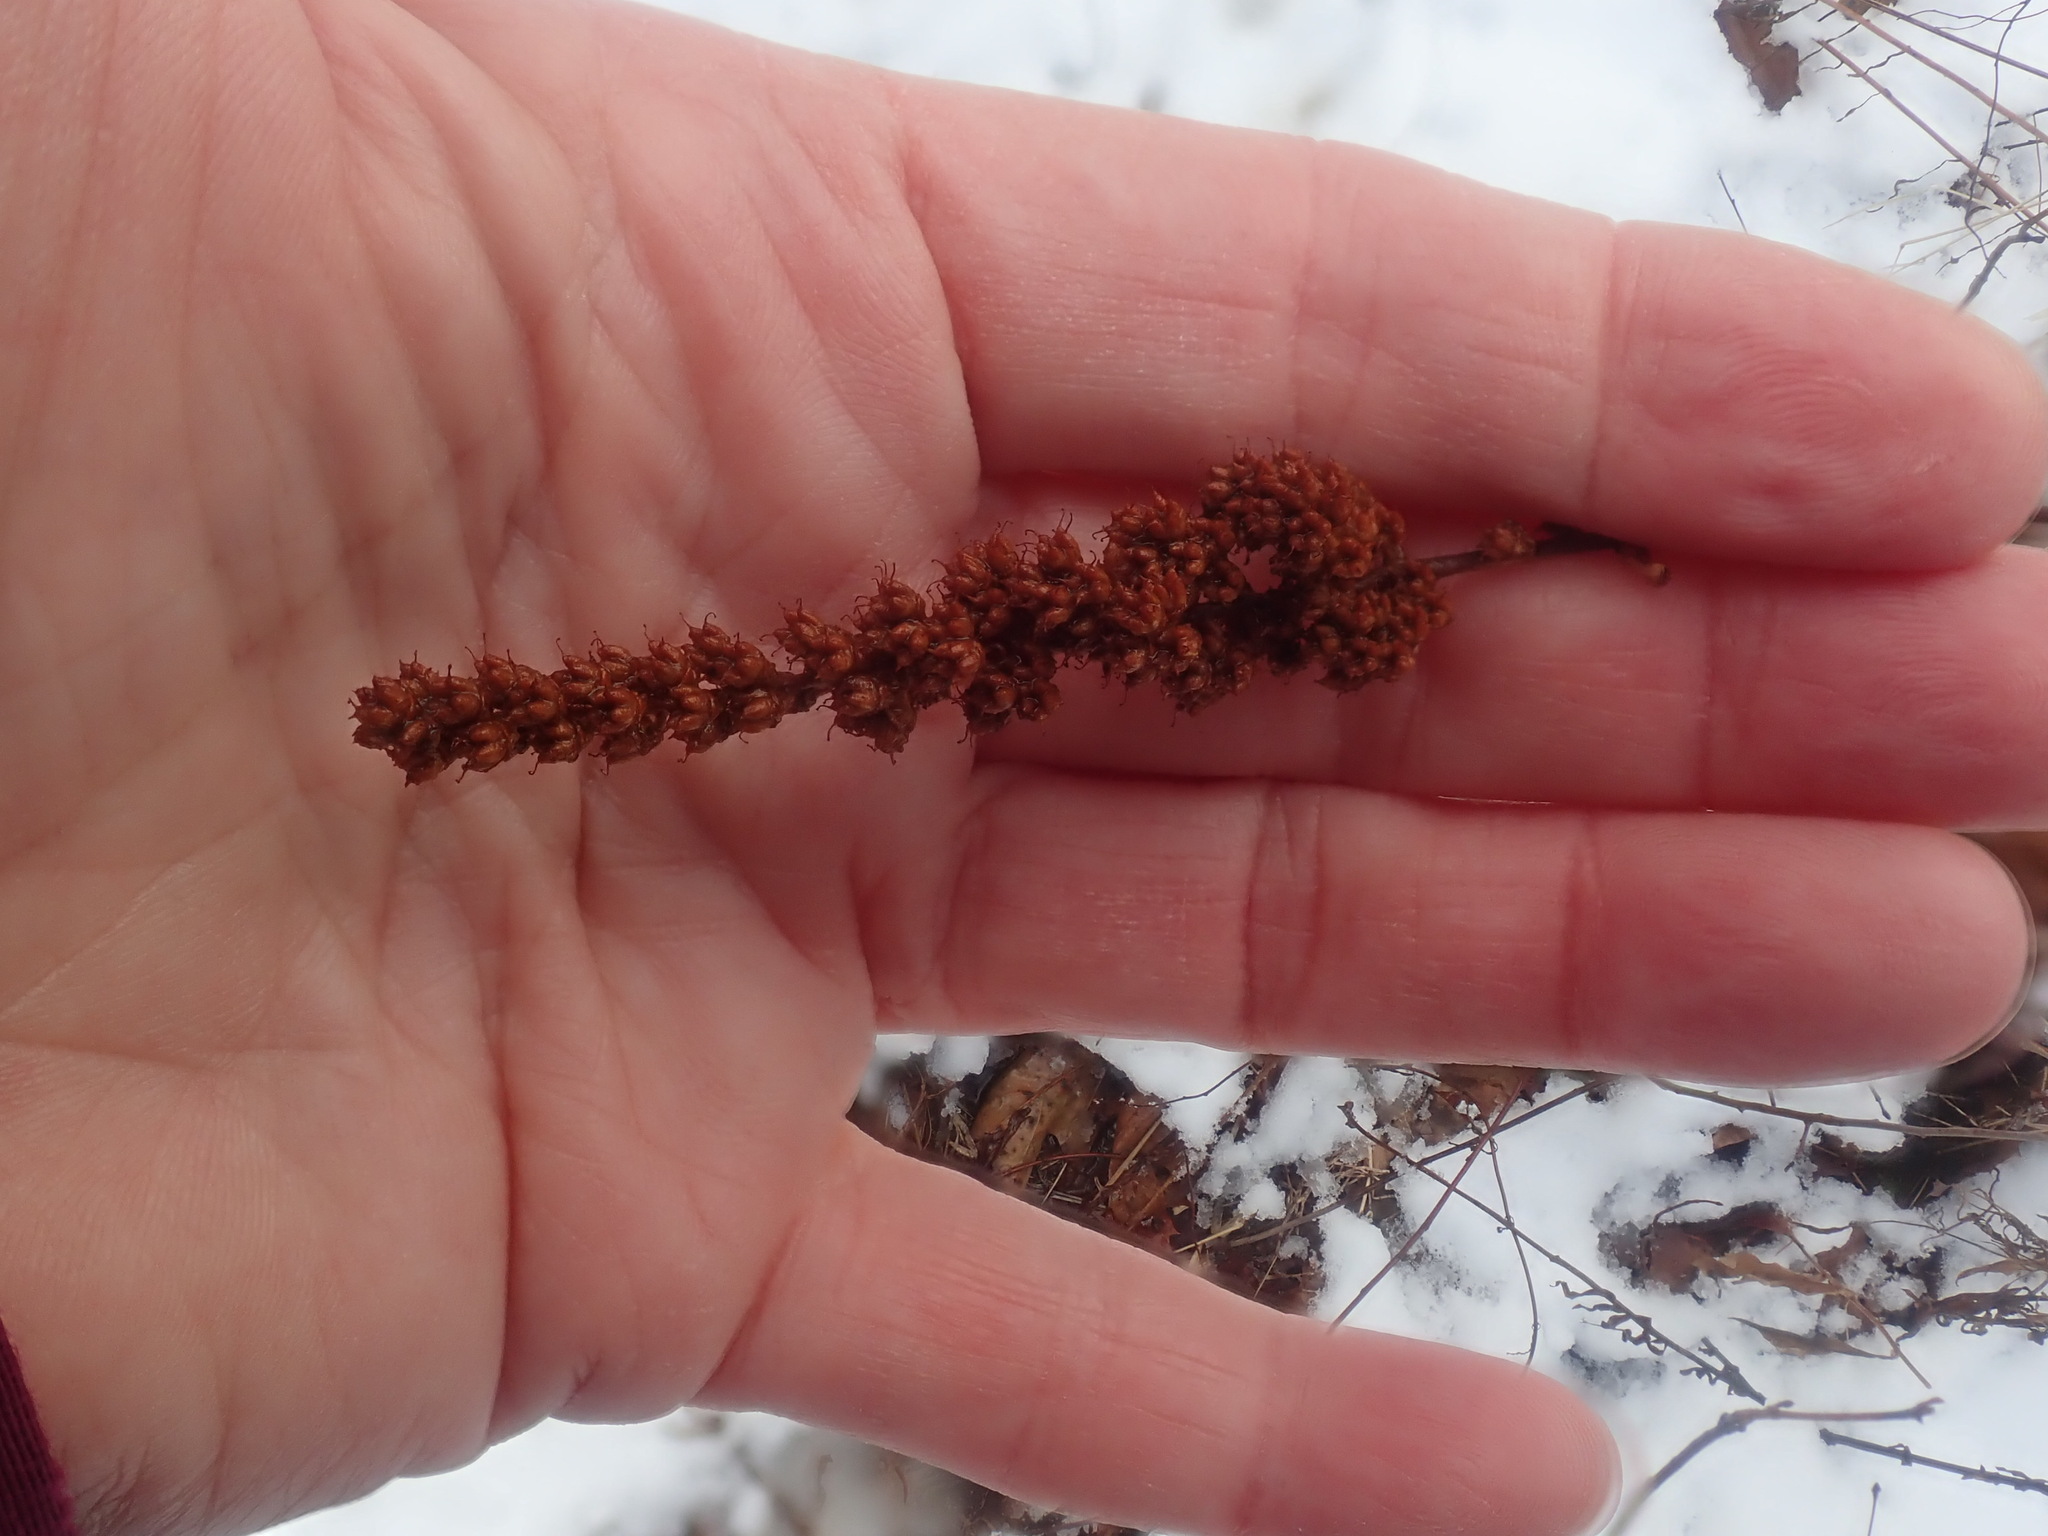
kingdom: Plantae
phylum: Tracheophyta
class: Magnoliopsida
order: Rosales
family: Rosaceae
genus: Spiraea
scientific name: Spiraea tomentosa
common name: Hardhack
